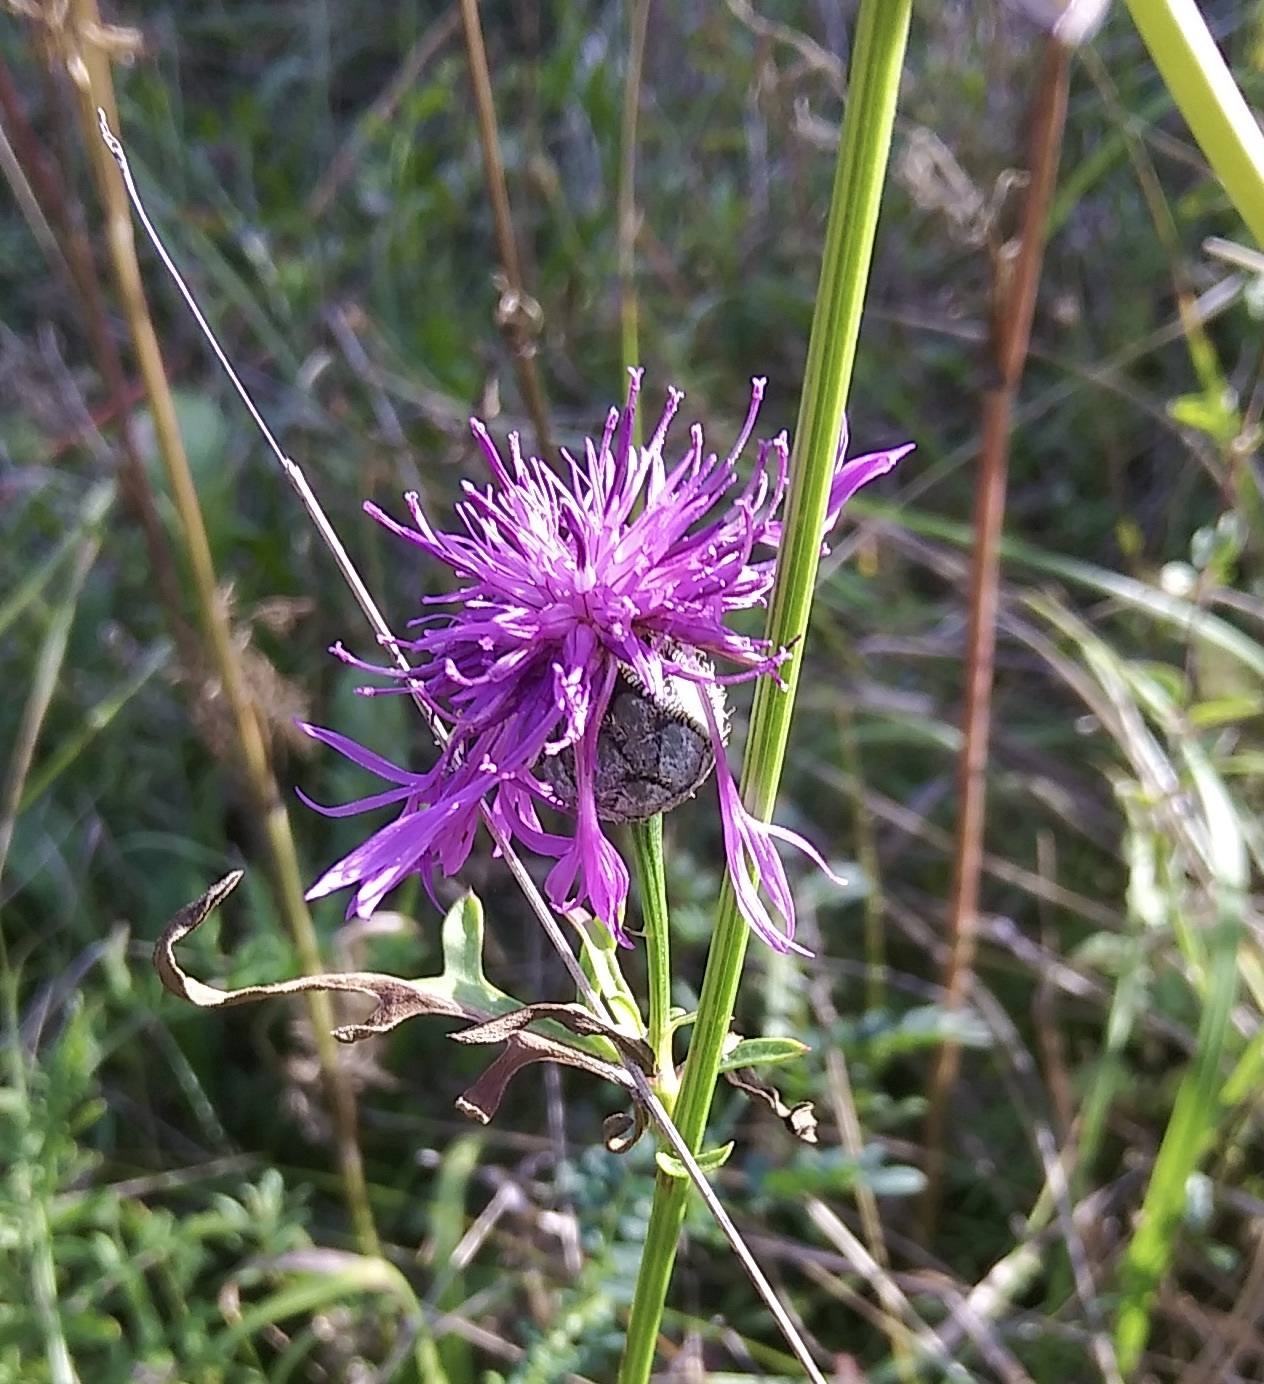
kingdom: Plantae
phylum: Tracheophyta
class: Magnoliopsida
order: Asterales
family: Asteraceae
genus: Centaurea
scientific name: Centaurea scabiosa
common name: Greater knapweed
